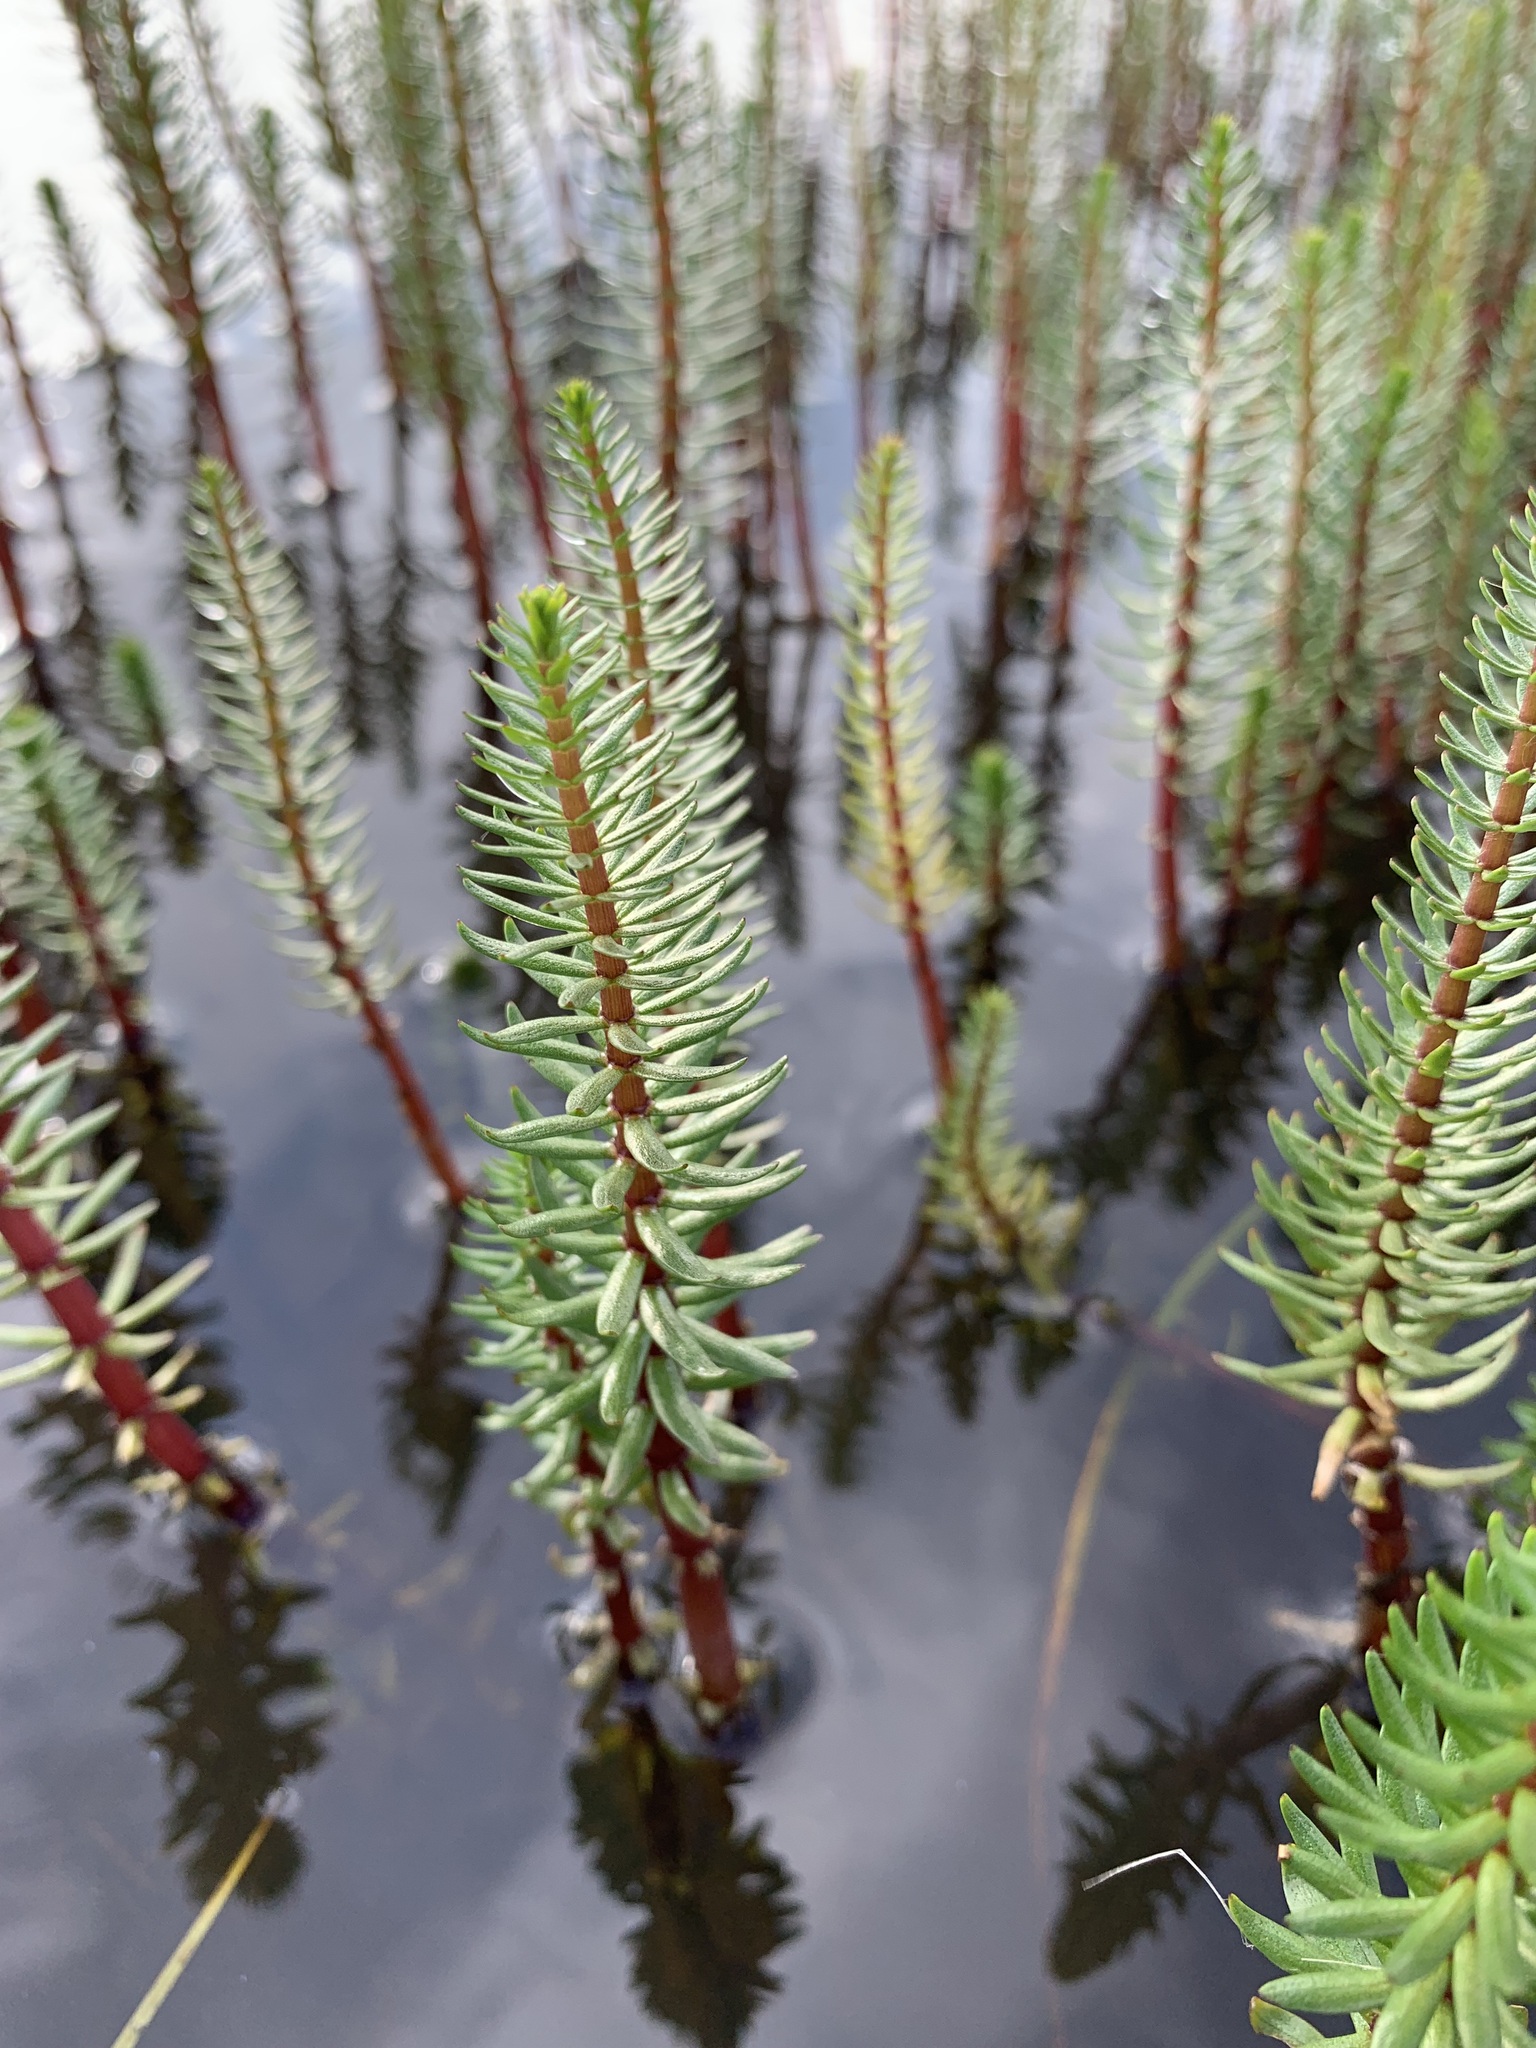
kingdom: Plantae
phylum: Tracheophyta
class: Magnoliopsida
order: Lamiales
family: Plantaginaceae
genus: Hippuris
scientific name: Hippuris lanceolata
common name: Lance-leaved mare's-tail
